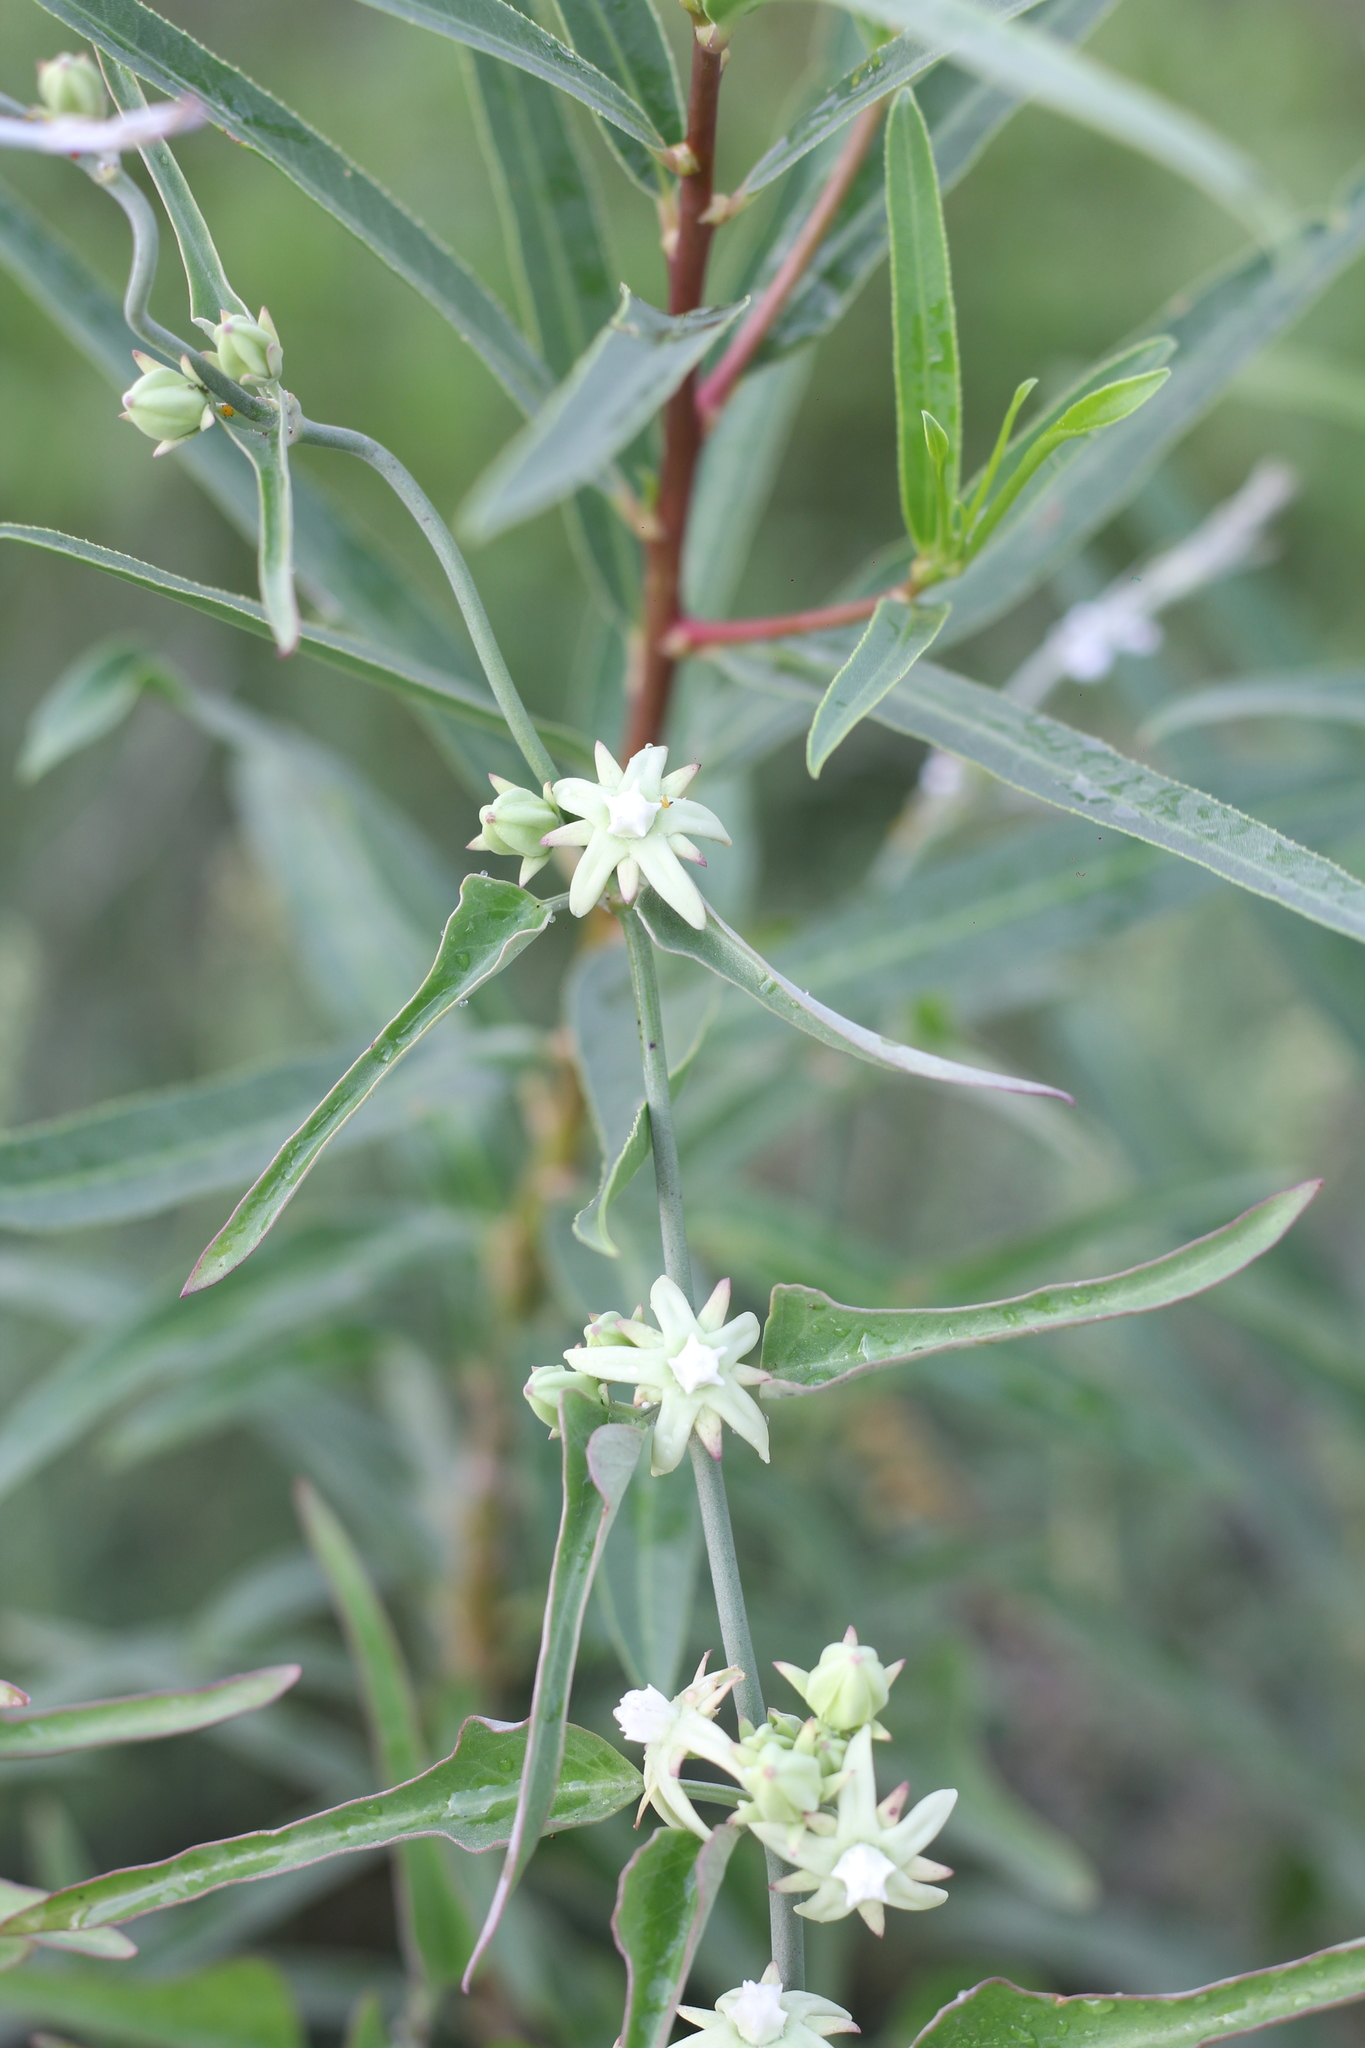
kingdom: Plantae
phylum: Tracheophyta
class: Magnoliopsida
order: Gentianales
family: Apocynaceae
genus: Araujia
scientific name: Araujia odorata
